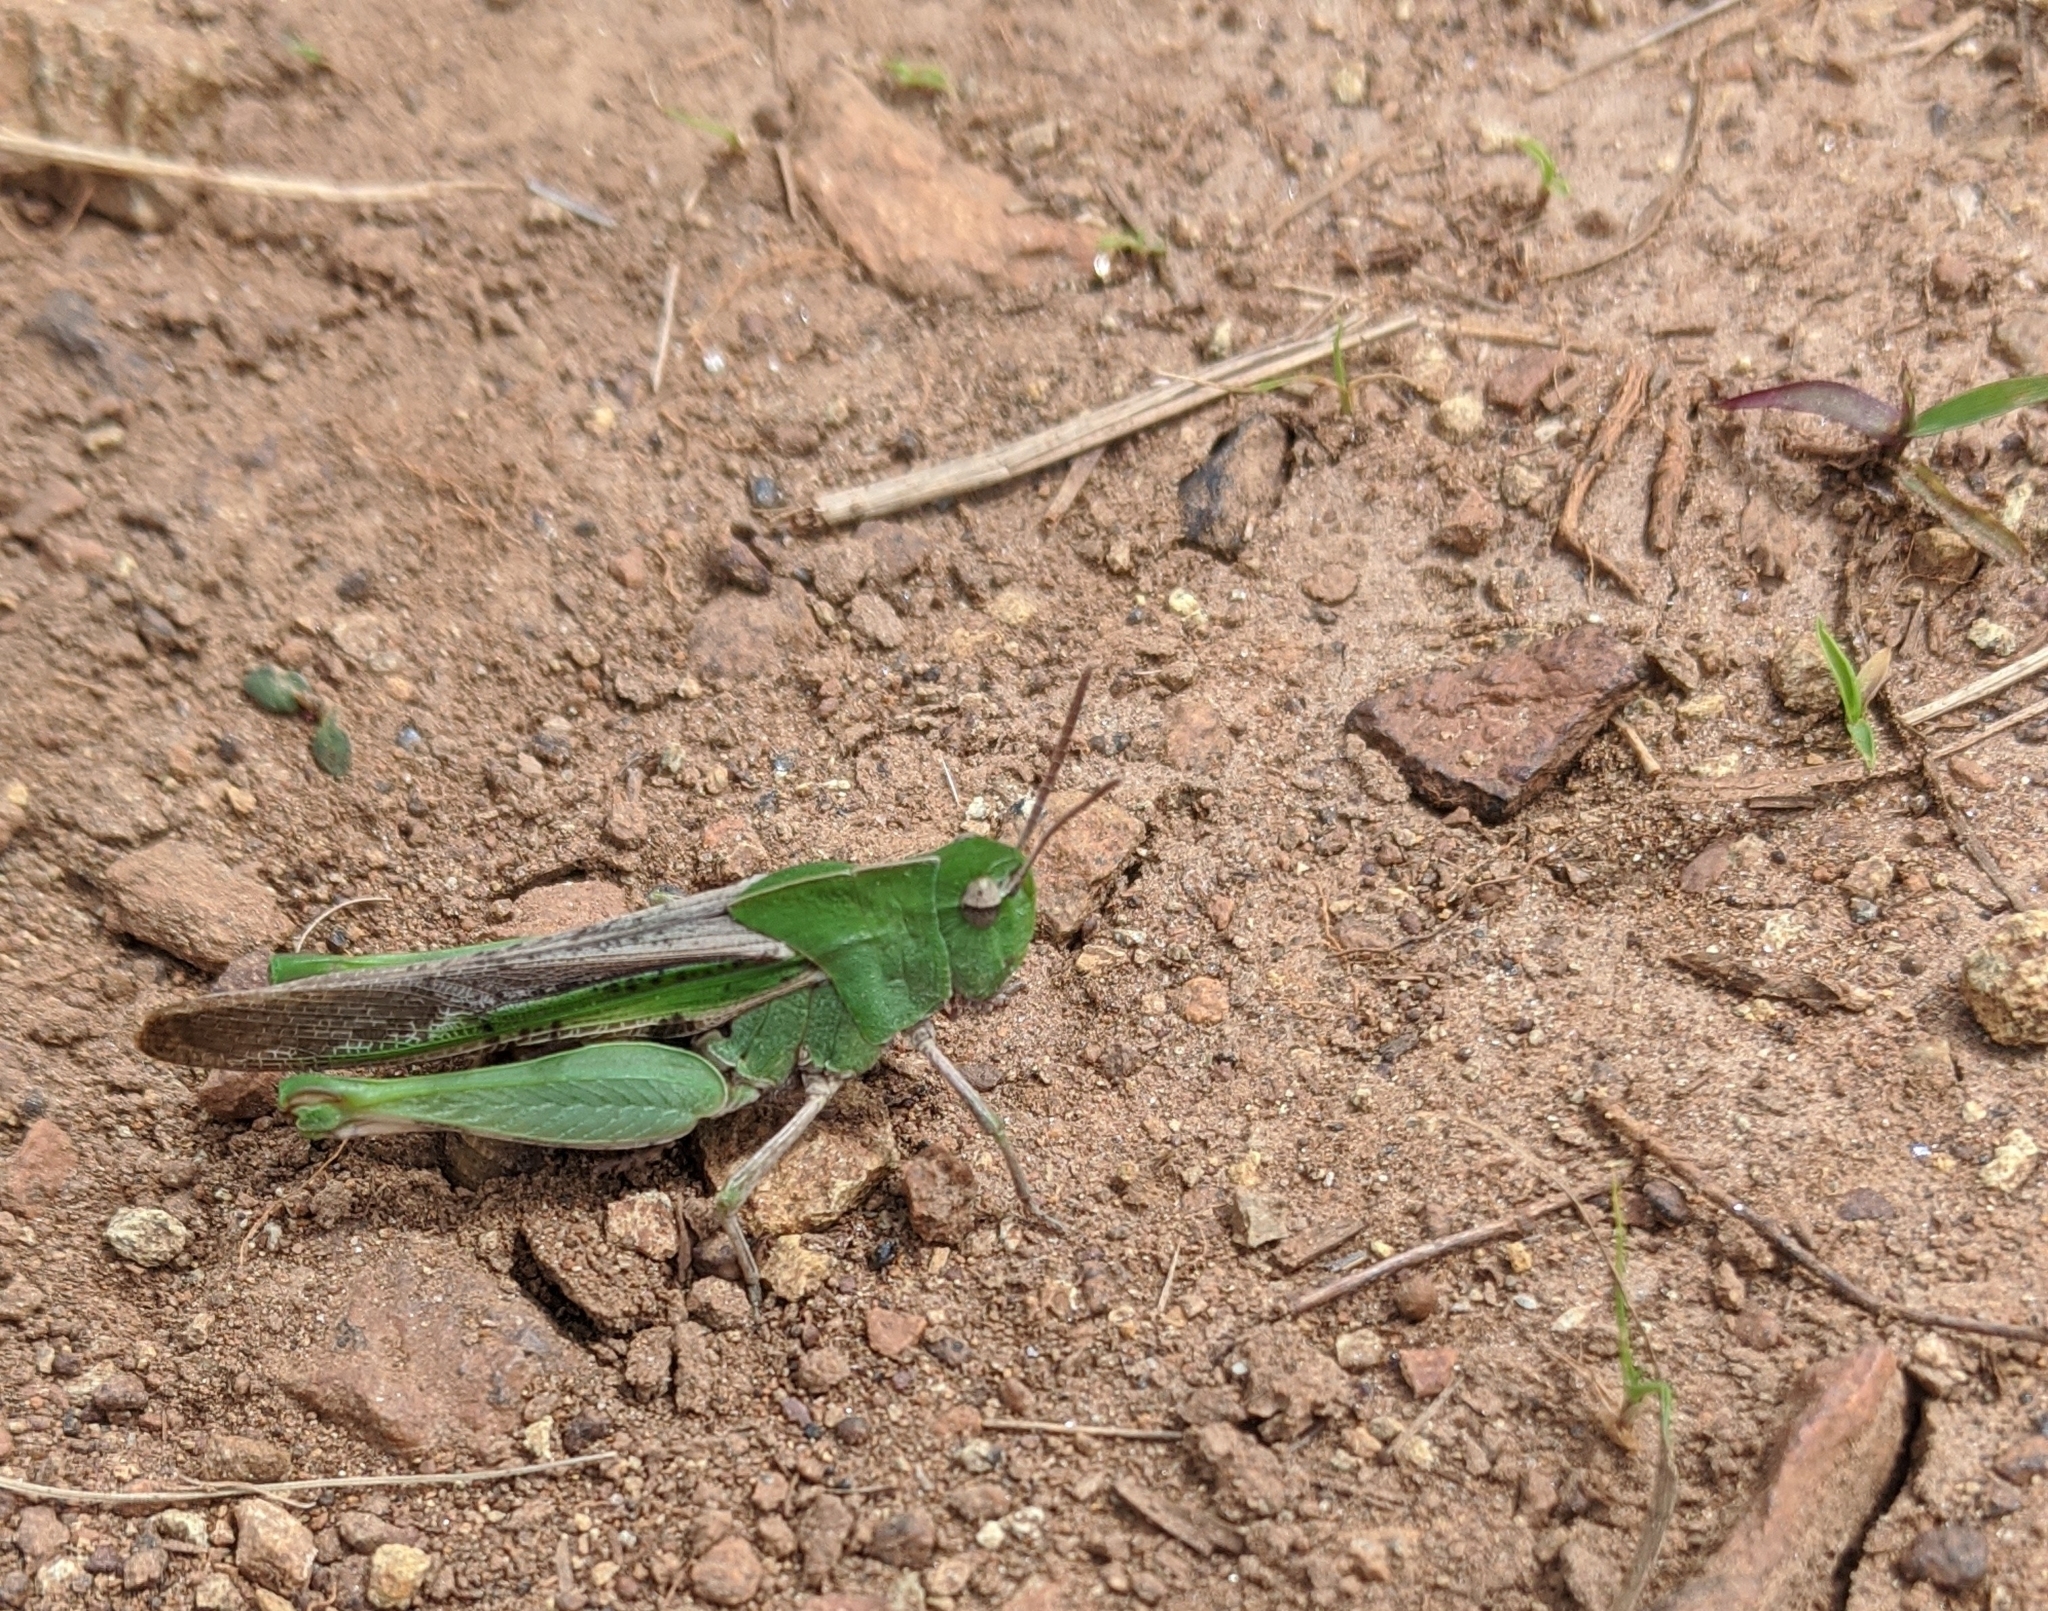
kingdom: Animalia
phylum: Arthropoda
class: Insecta
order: Orthoptera
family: Acrididae
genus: Chortophaga
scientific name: Chortophaga viridifasciata
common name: Green-striped grasshopper
